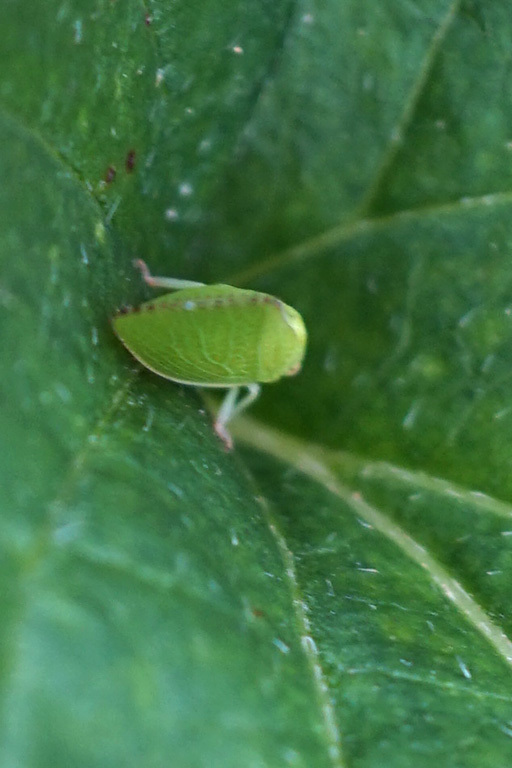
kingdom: Animalia
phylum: Arthropoda
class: Insecta
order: Hemiptera
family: Acanaloniidae
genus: Acanalonia
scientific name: Acanalonia conica
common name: Green cone-headed planthopper
